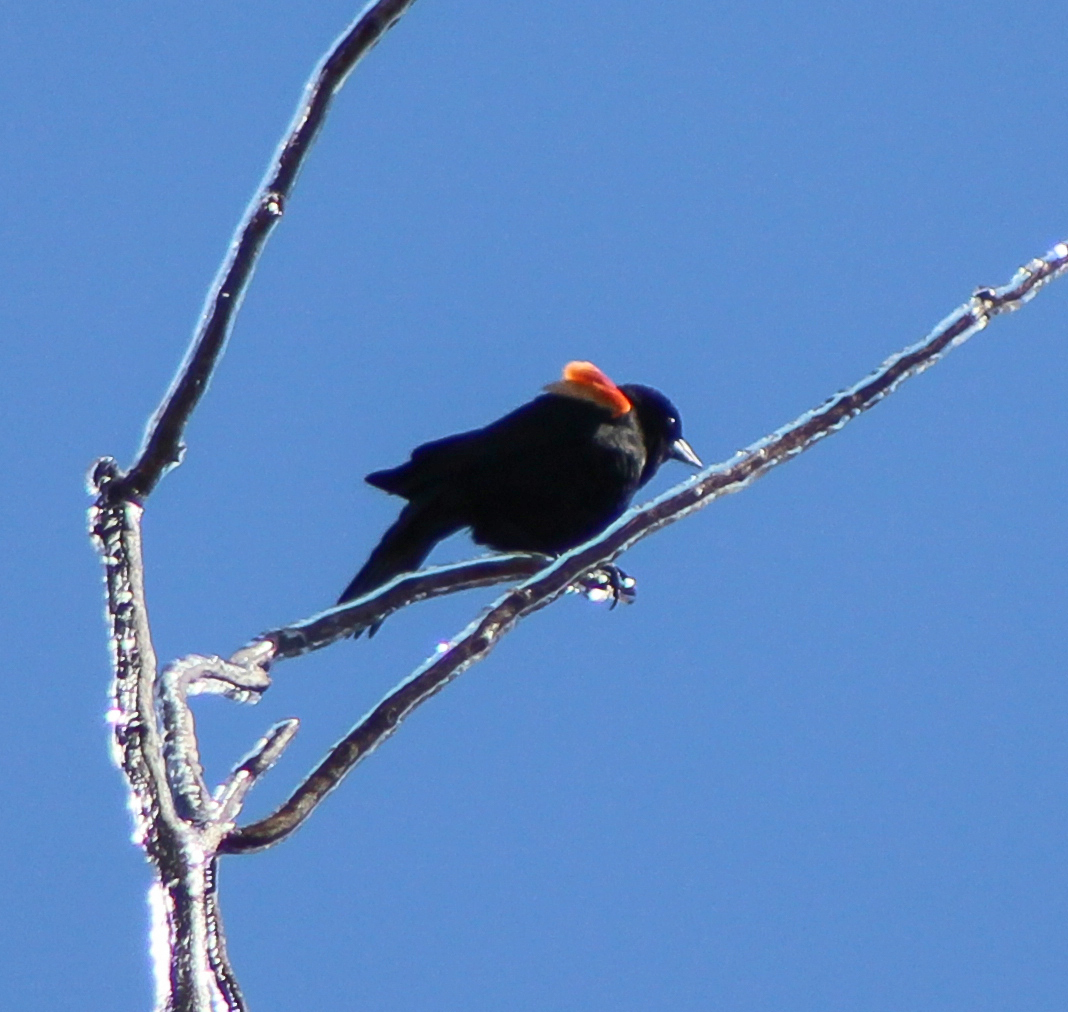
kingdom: Animalia
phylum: Chordata
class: Aves
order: Passeriformes
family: Icteridae
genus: Agelaius
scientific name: Agelaius phoeniceus
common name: Red-winged blackbird
